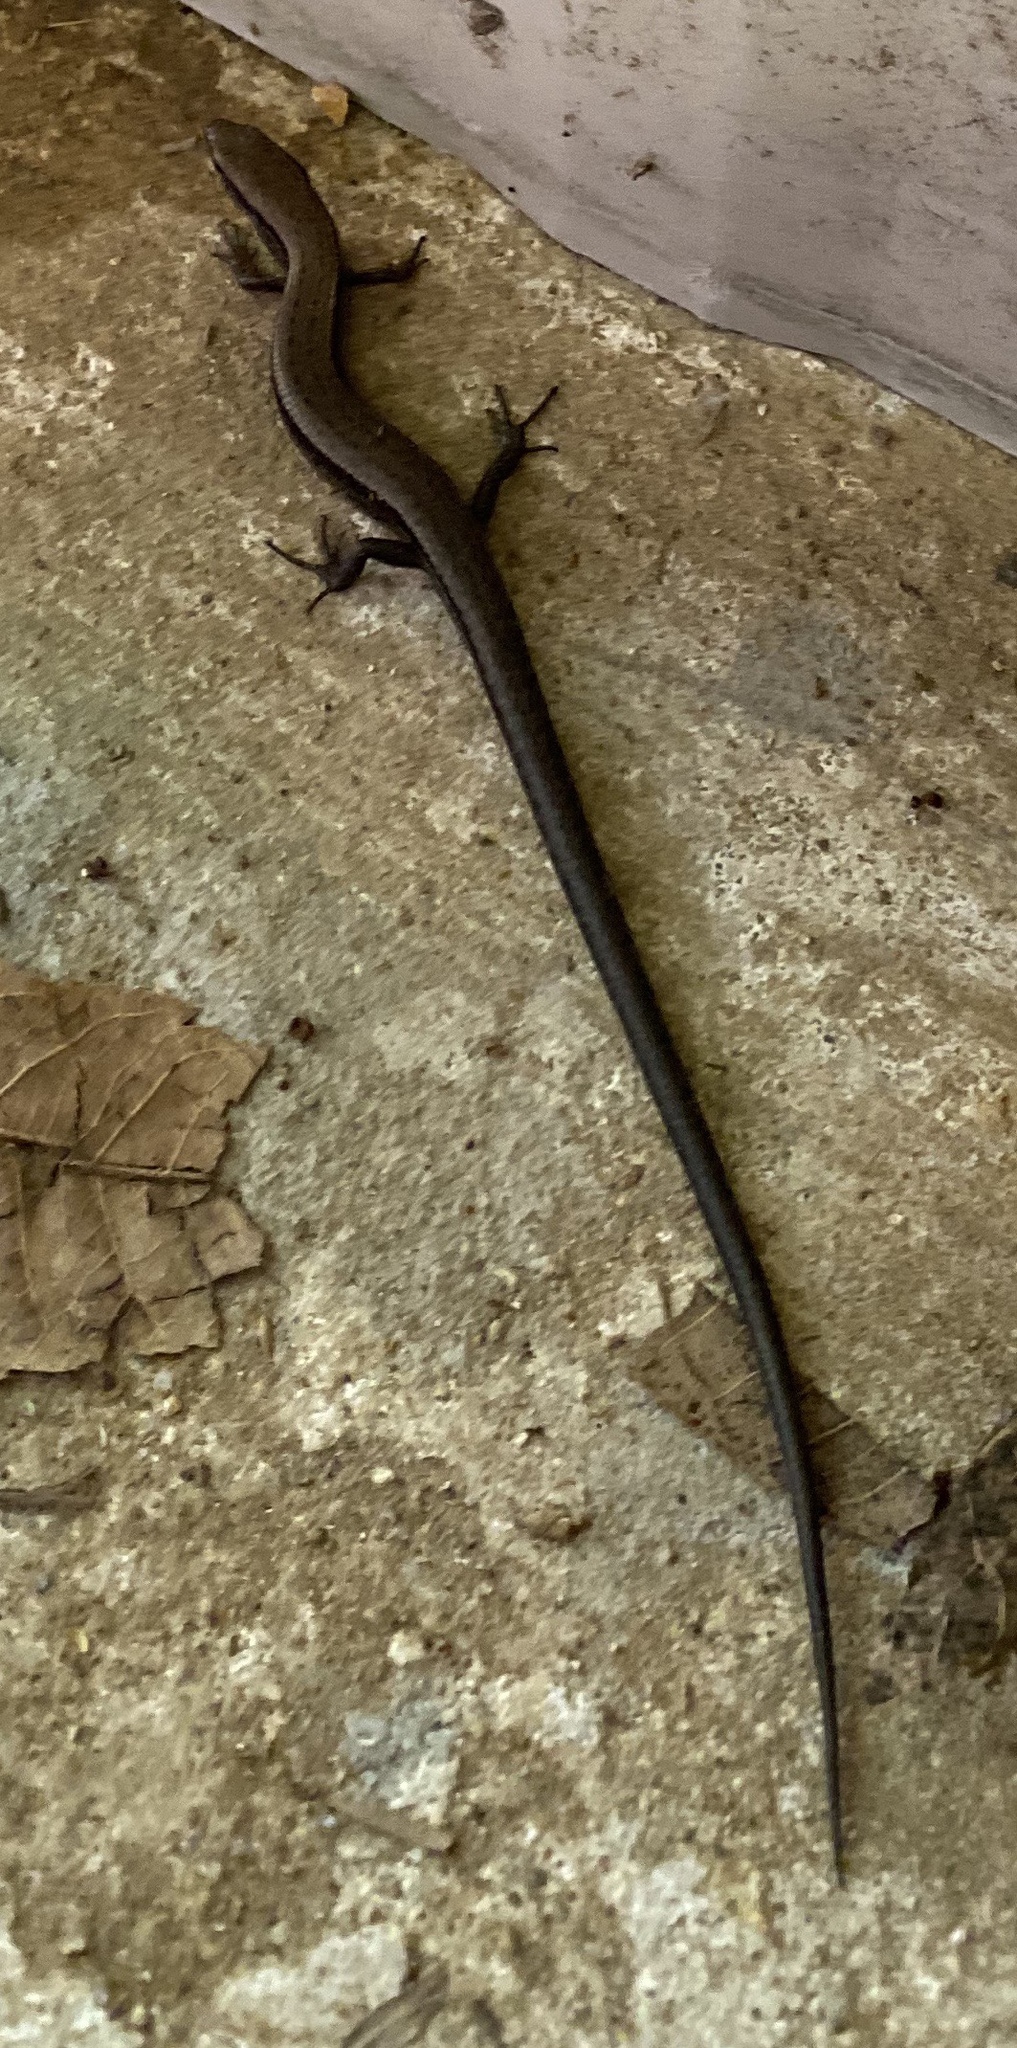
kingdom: Animalia
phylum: Chordata
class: Squamata
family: Scincidae
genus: Scincella
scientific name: Scincella lateralis
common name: Ground skink
